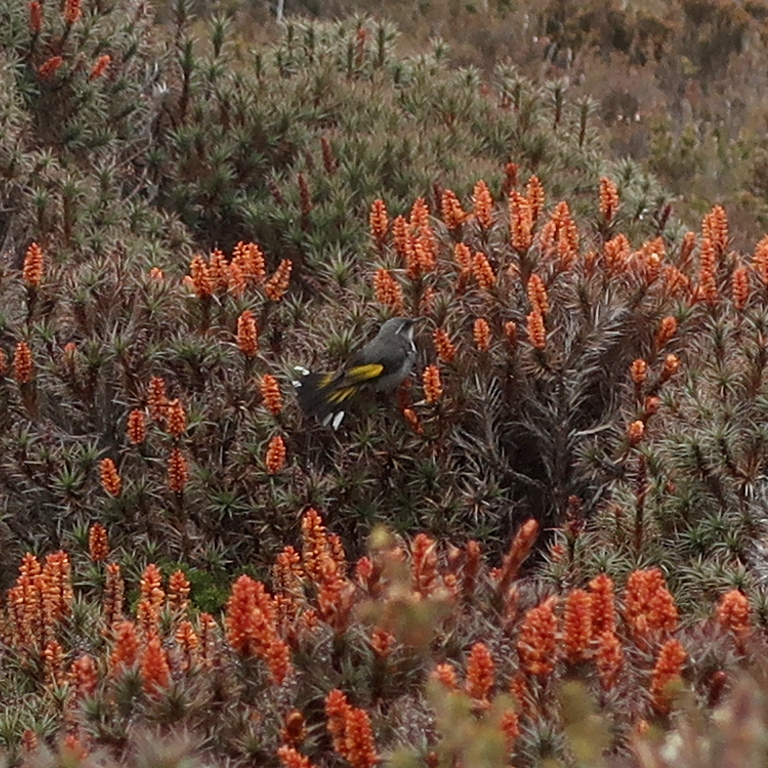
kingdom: Animalia
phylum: Chordata
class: Aves
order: Passeriformes
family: Meliphagidae
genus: Phylidonyris
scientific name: Phylidonyris pyrrhopterus
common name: Crescent honeyeater
